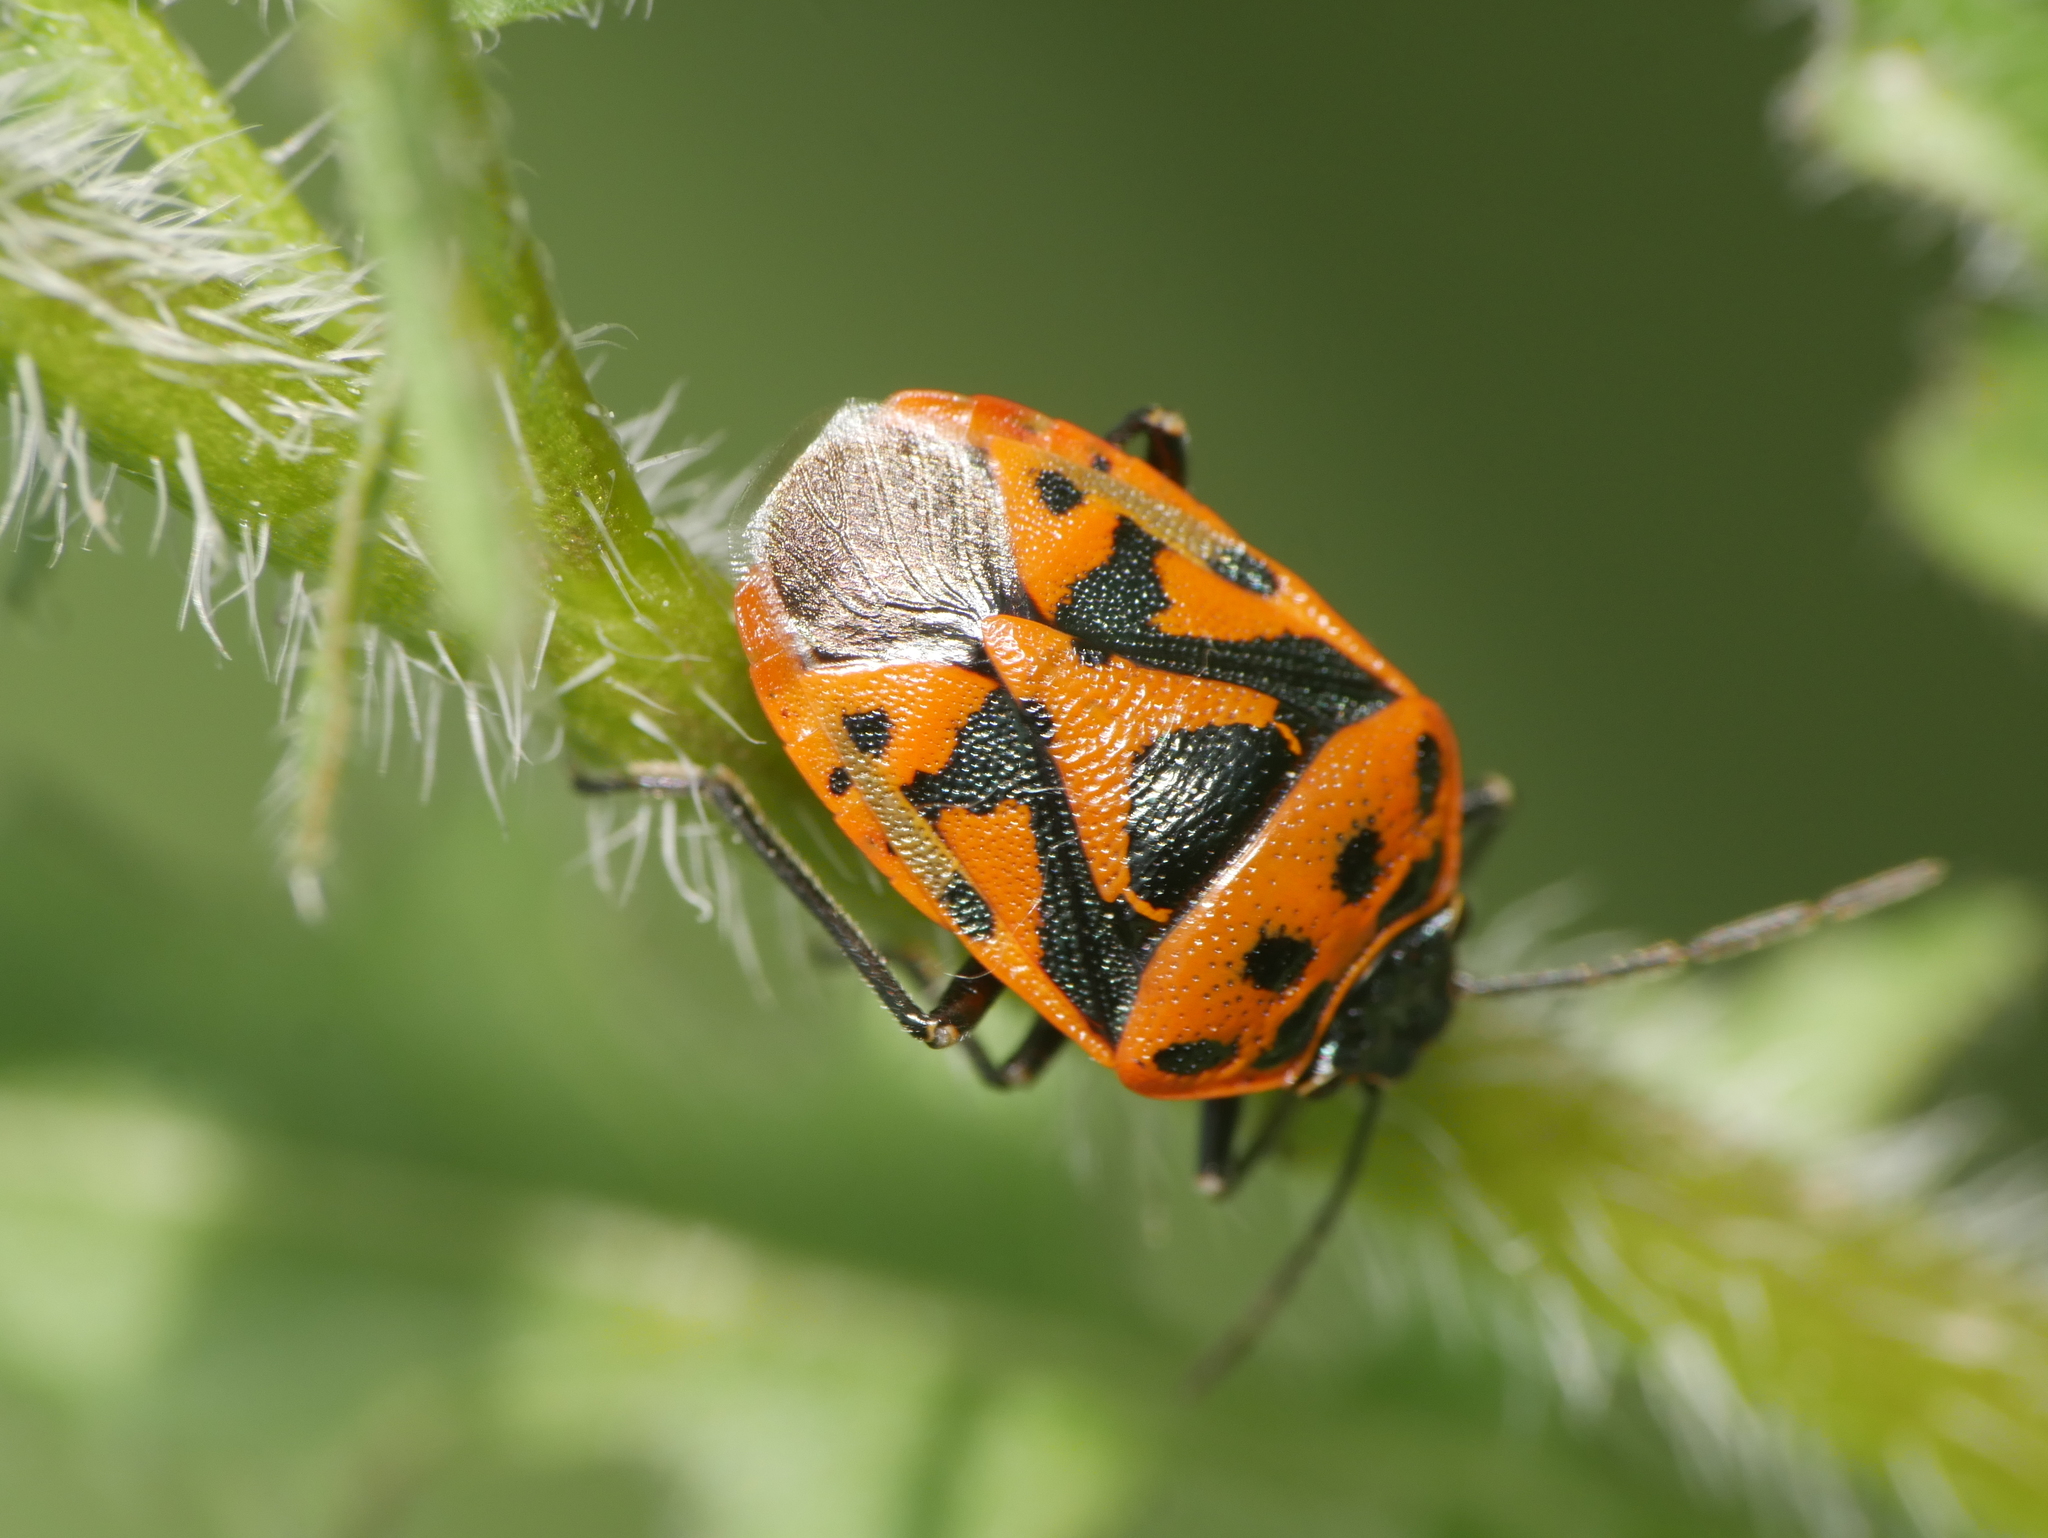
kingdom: Animalia
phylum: Arthropoda
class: Insecta
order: Hemiptera
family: Pentatomidae
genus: Eurydema
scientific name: Eurydema ornata
